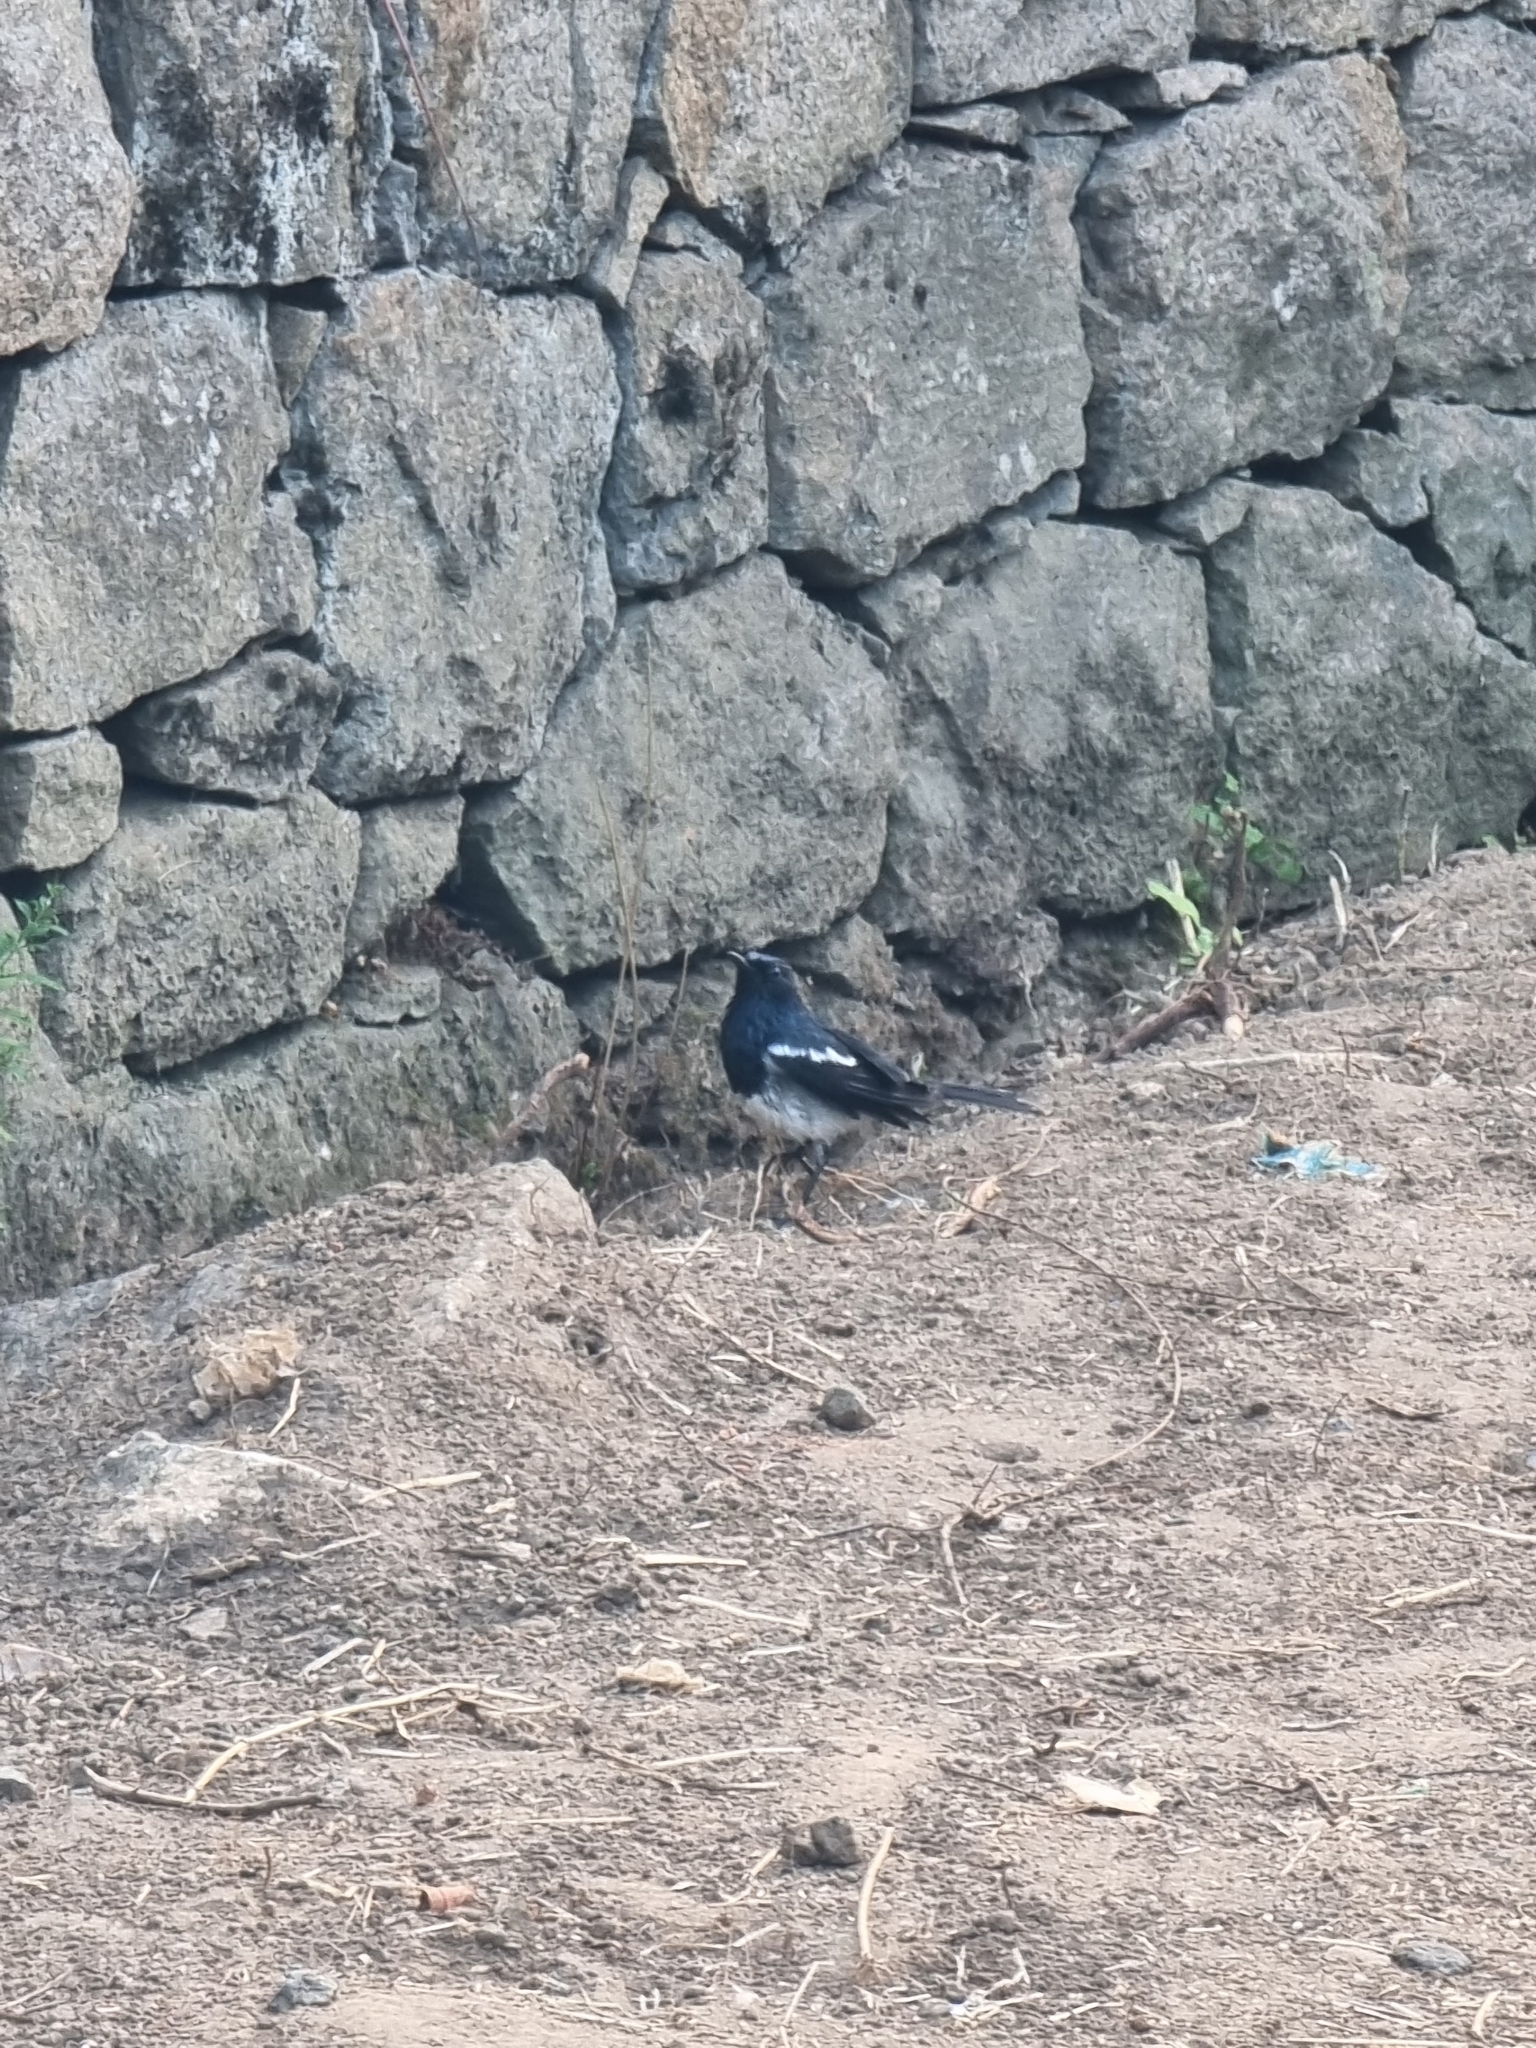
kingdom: Animalia
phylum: Chordata
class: Aves
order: Passeriformes
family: Muscicapidae
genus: Copsychus
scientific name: Copsychus saularis
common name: Oriental magpie-robin
